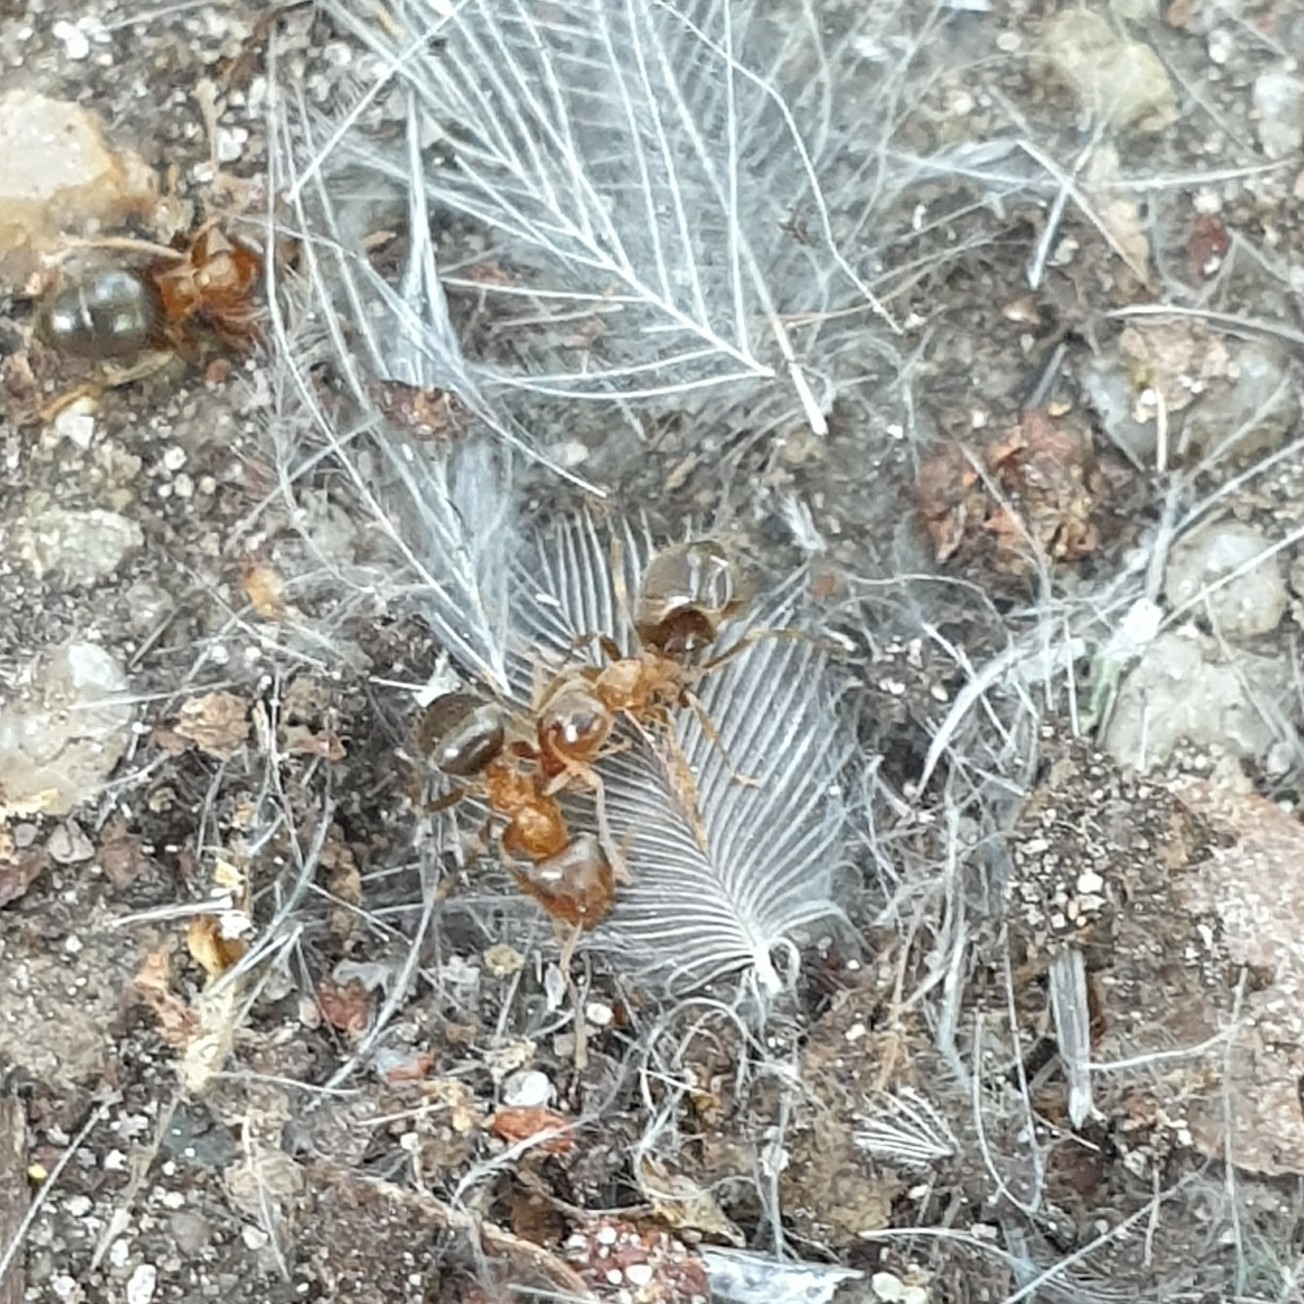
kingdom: Animalia
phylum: Arthropoda
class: Insecta
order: Hymenoptera
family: Formicidae
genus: Lasius
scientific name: Lasius brunneus
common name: Brown ant
